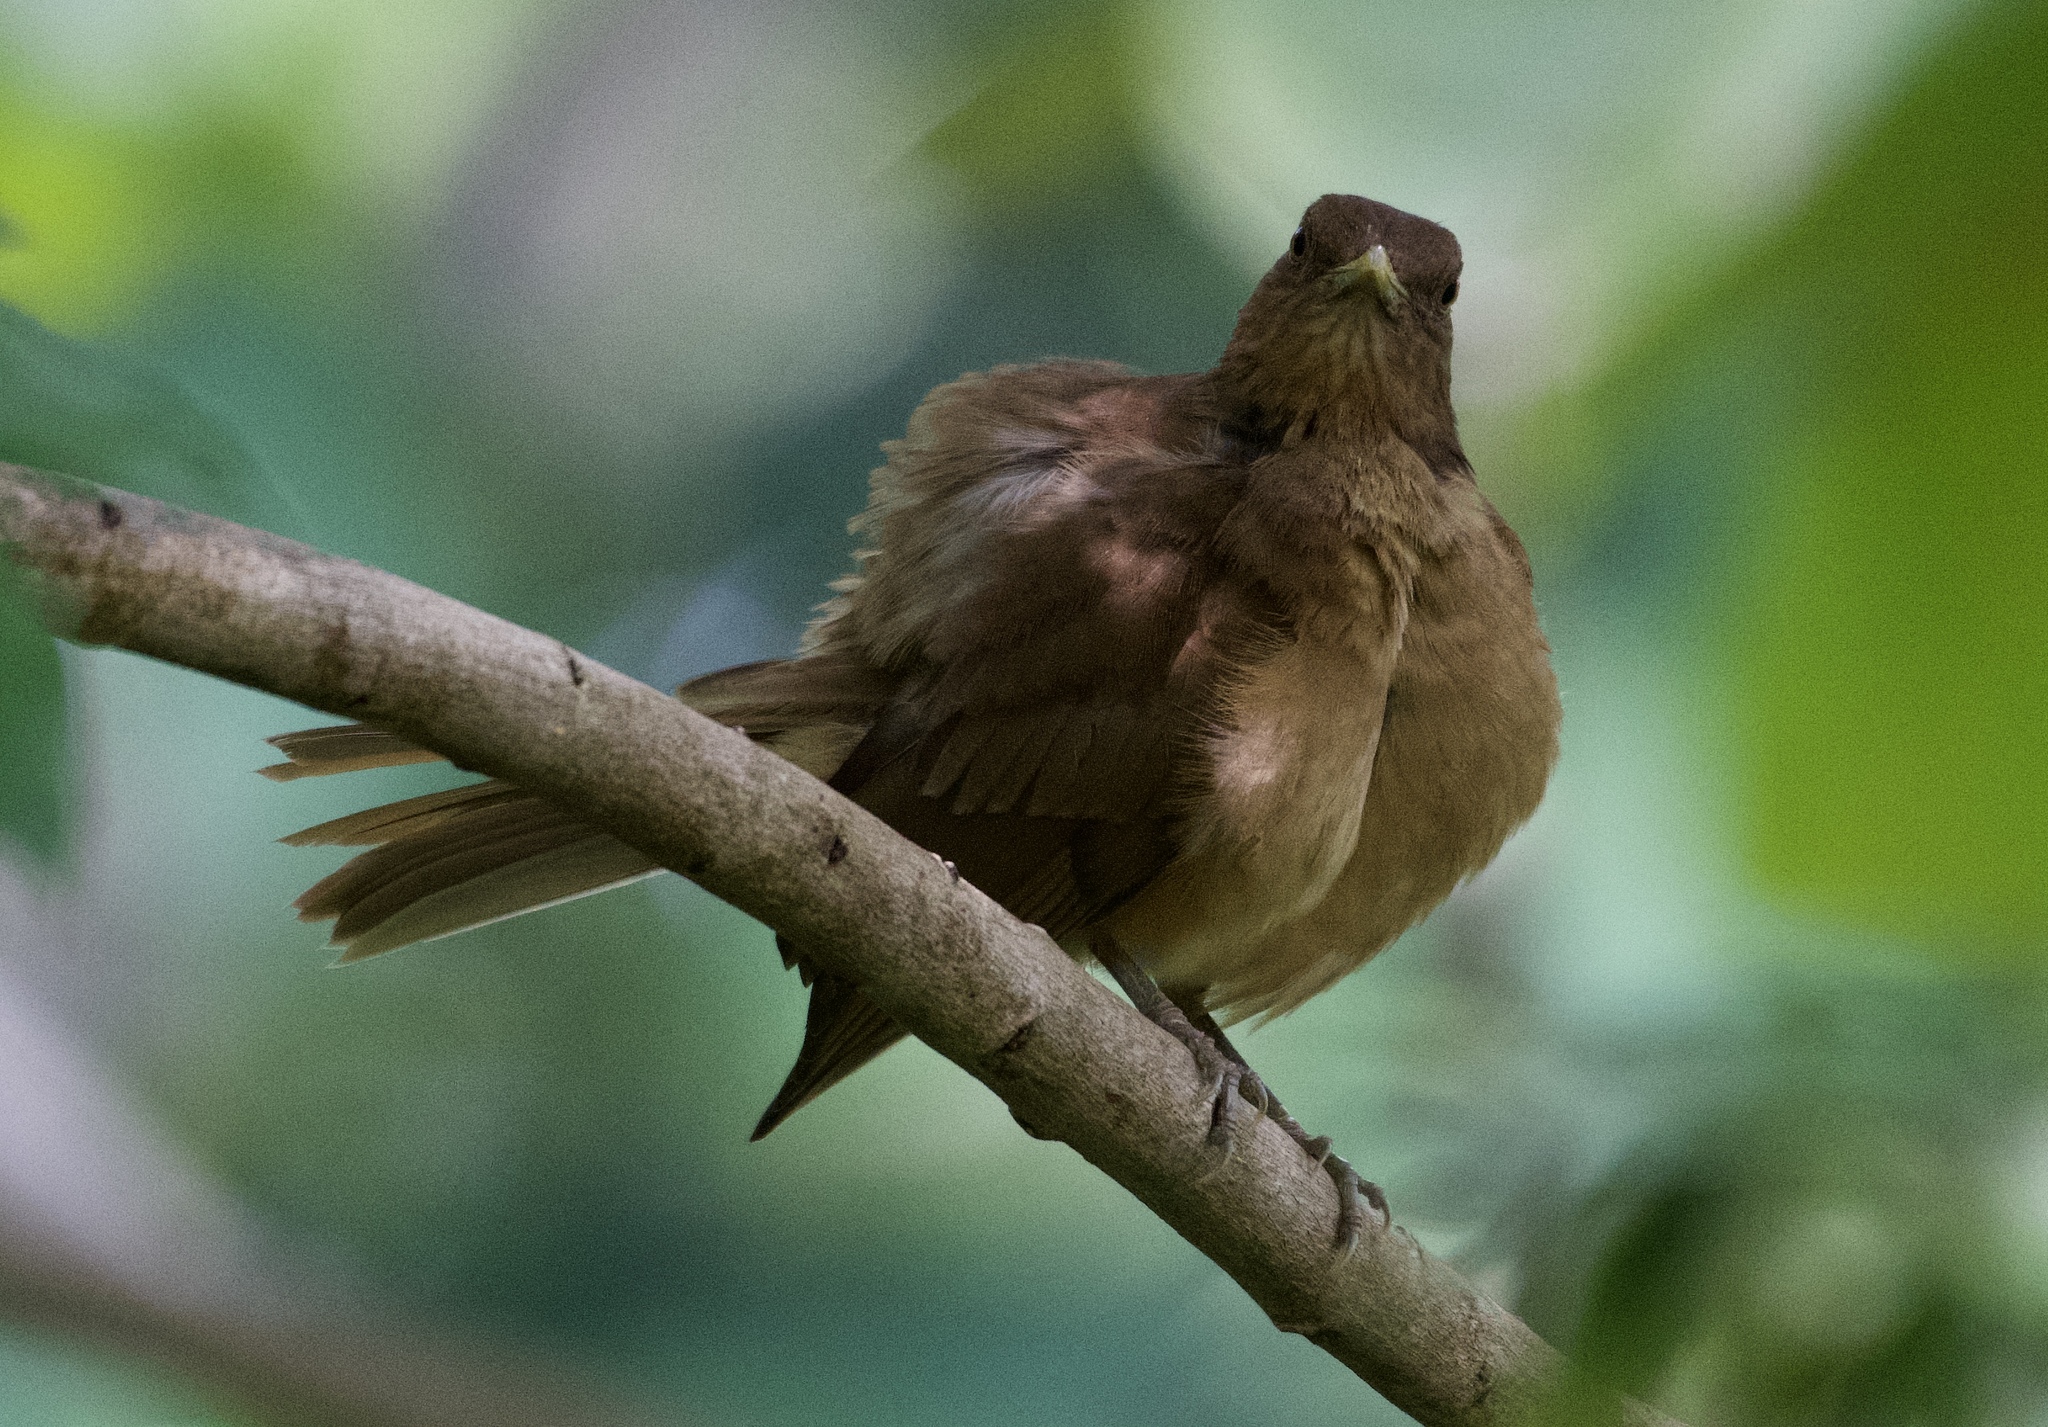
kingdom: Animalia
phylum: Chordata
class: Aves
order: Passeriformes
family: Turdidae
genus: Turdus
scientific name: Turdus grayi
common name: Clay-colored thrush
